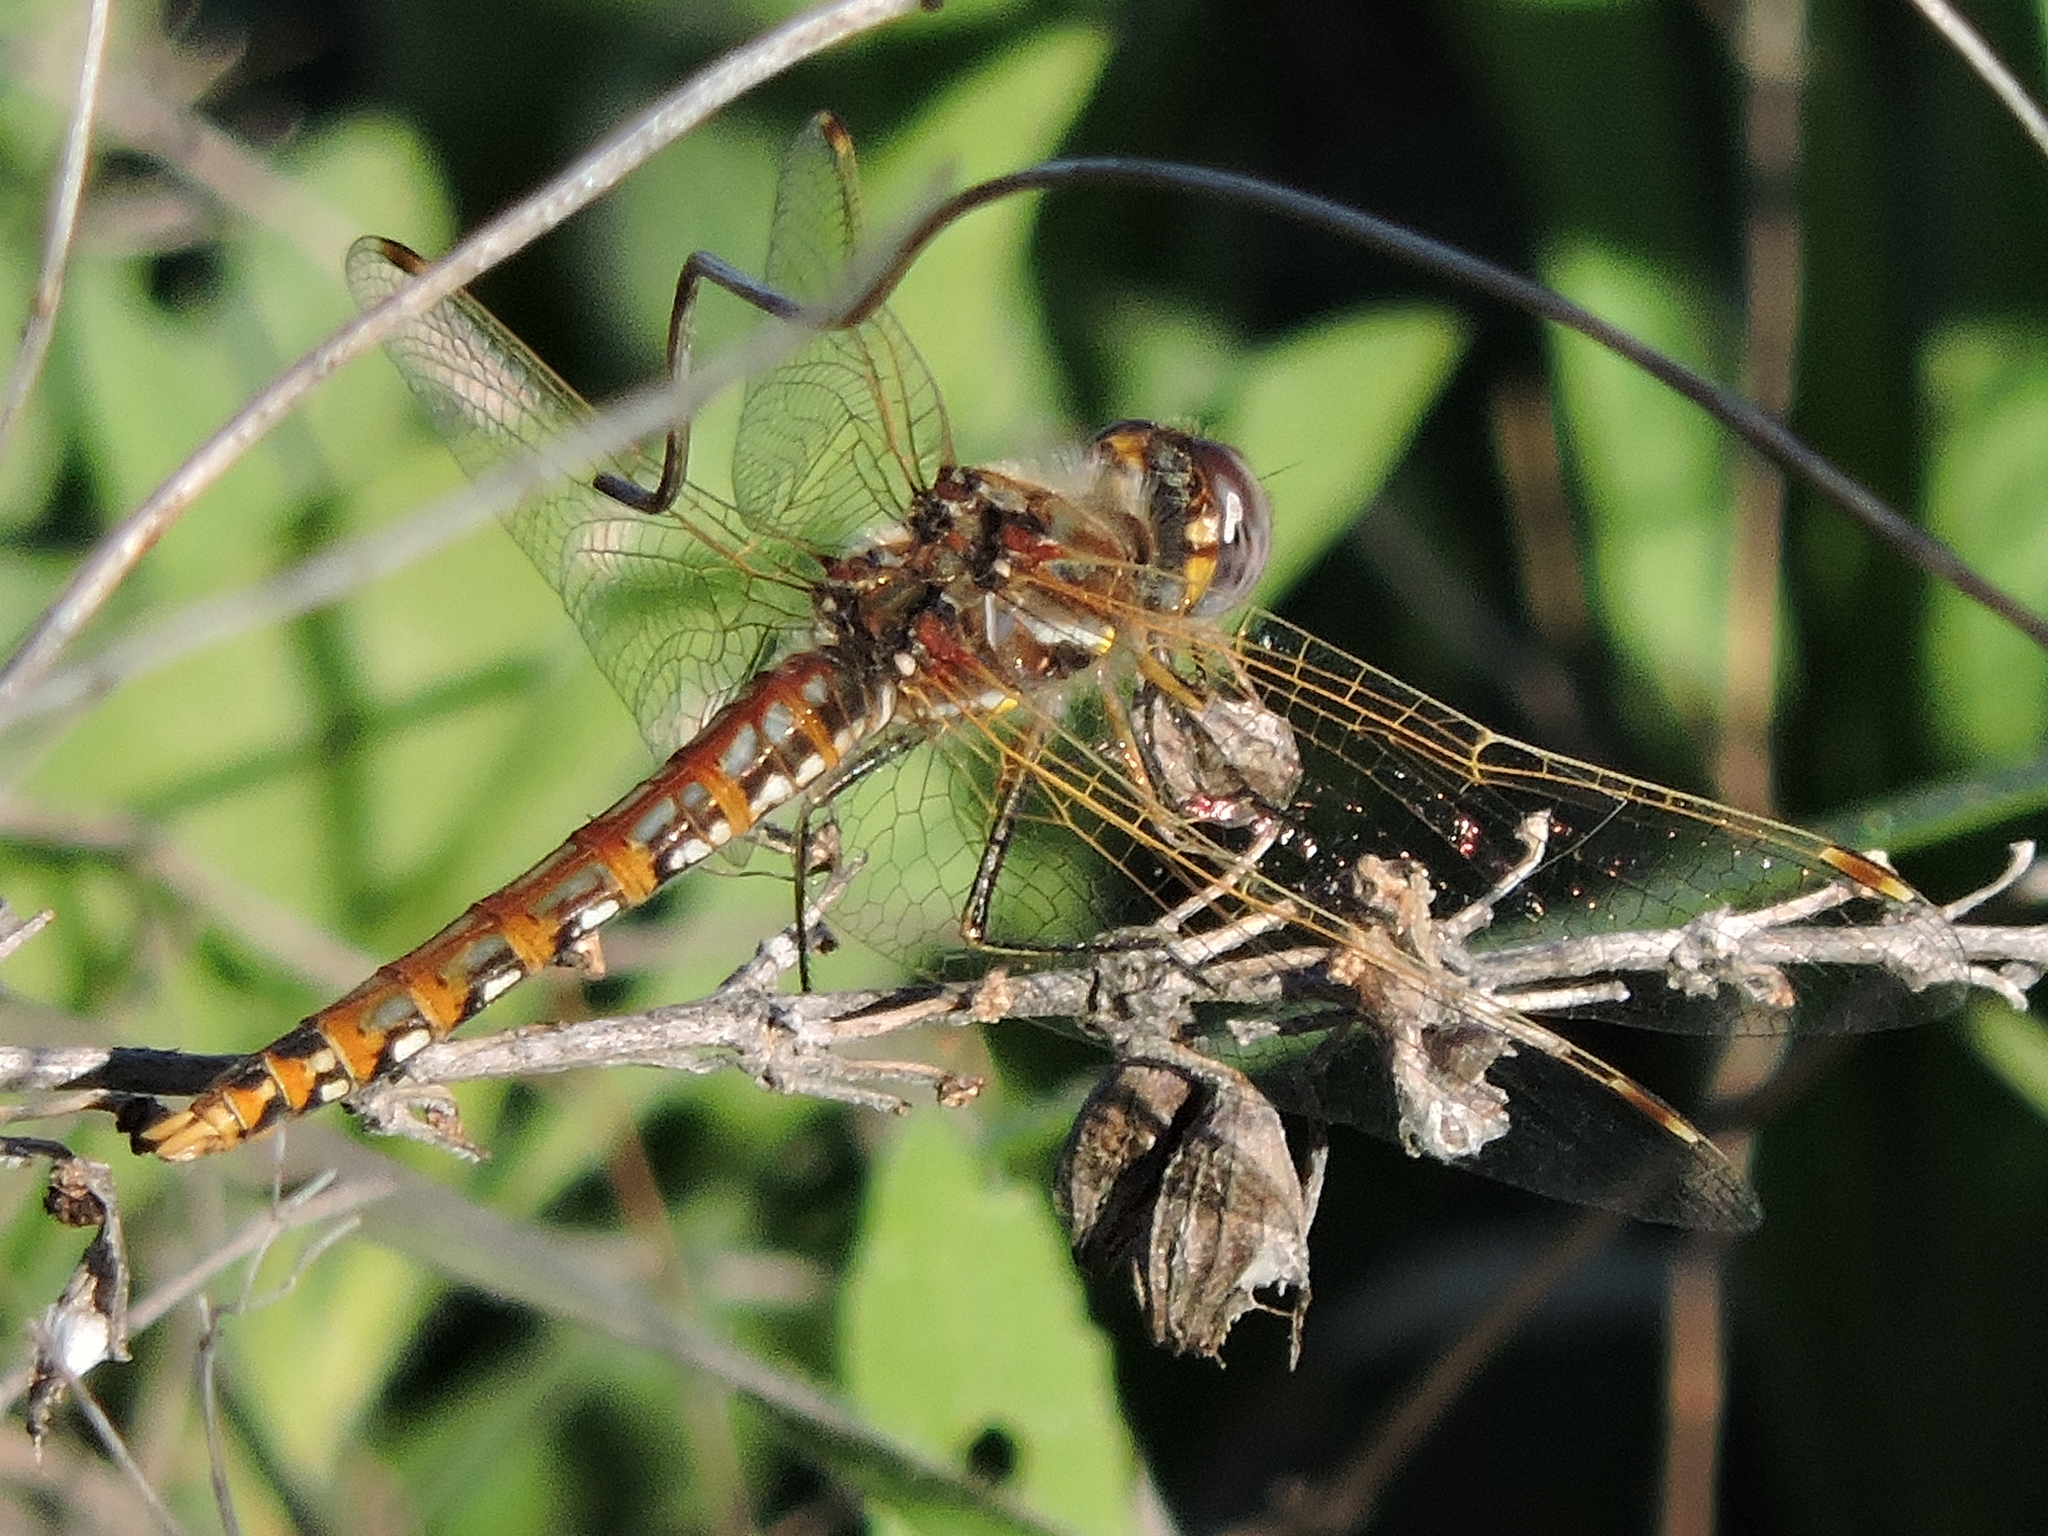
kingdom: Animalia
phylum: Arthropoda
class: Insecta
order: Odonata
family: Libellulidae
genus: Sympetrum
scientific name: Sympetrum corruptum
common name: Variegated meadowhawk
